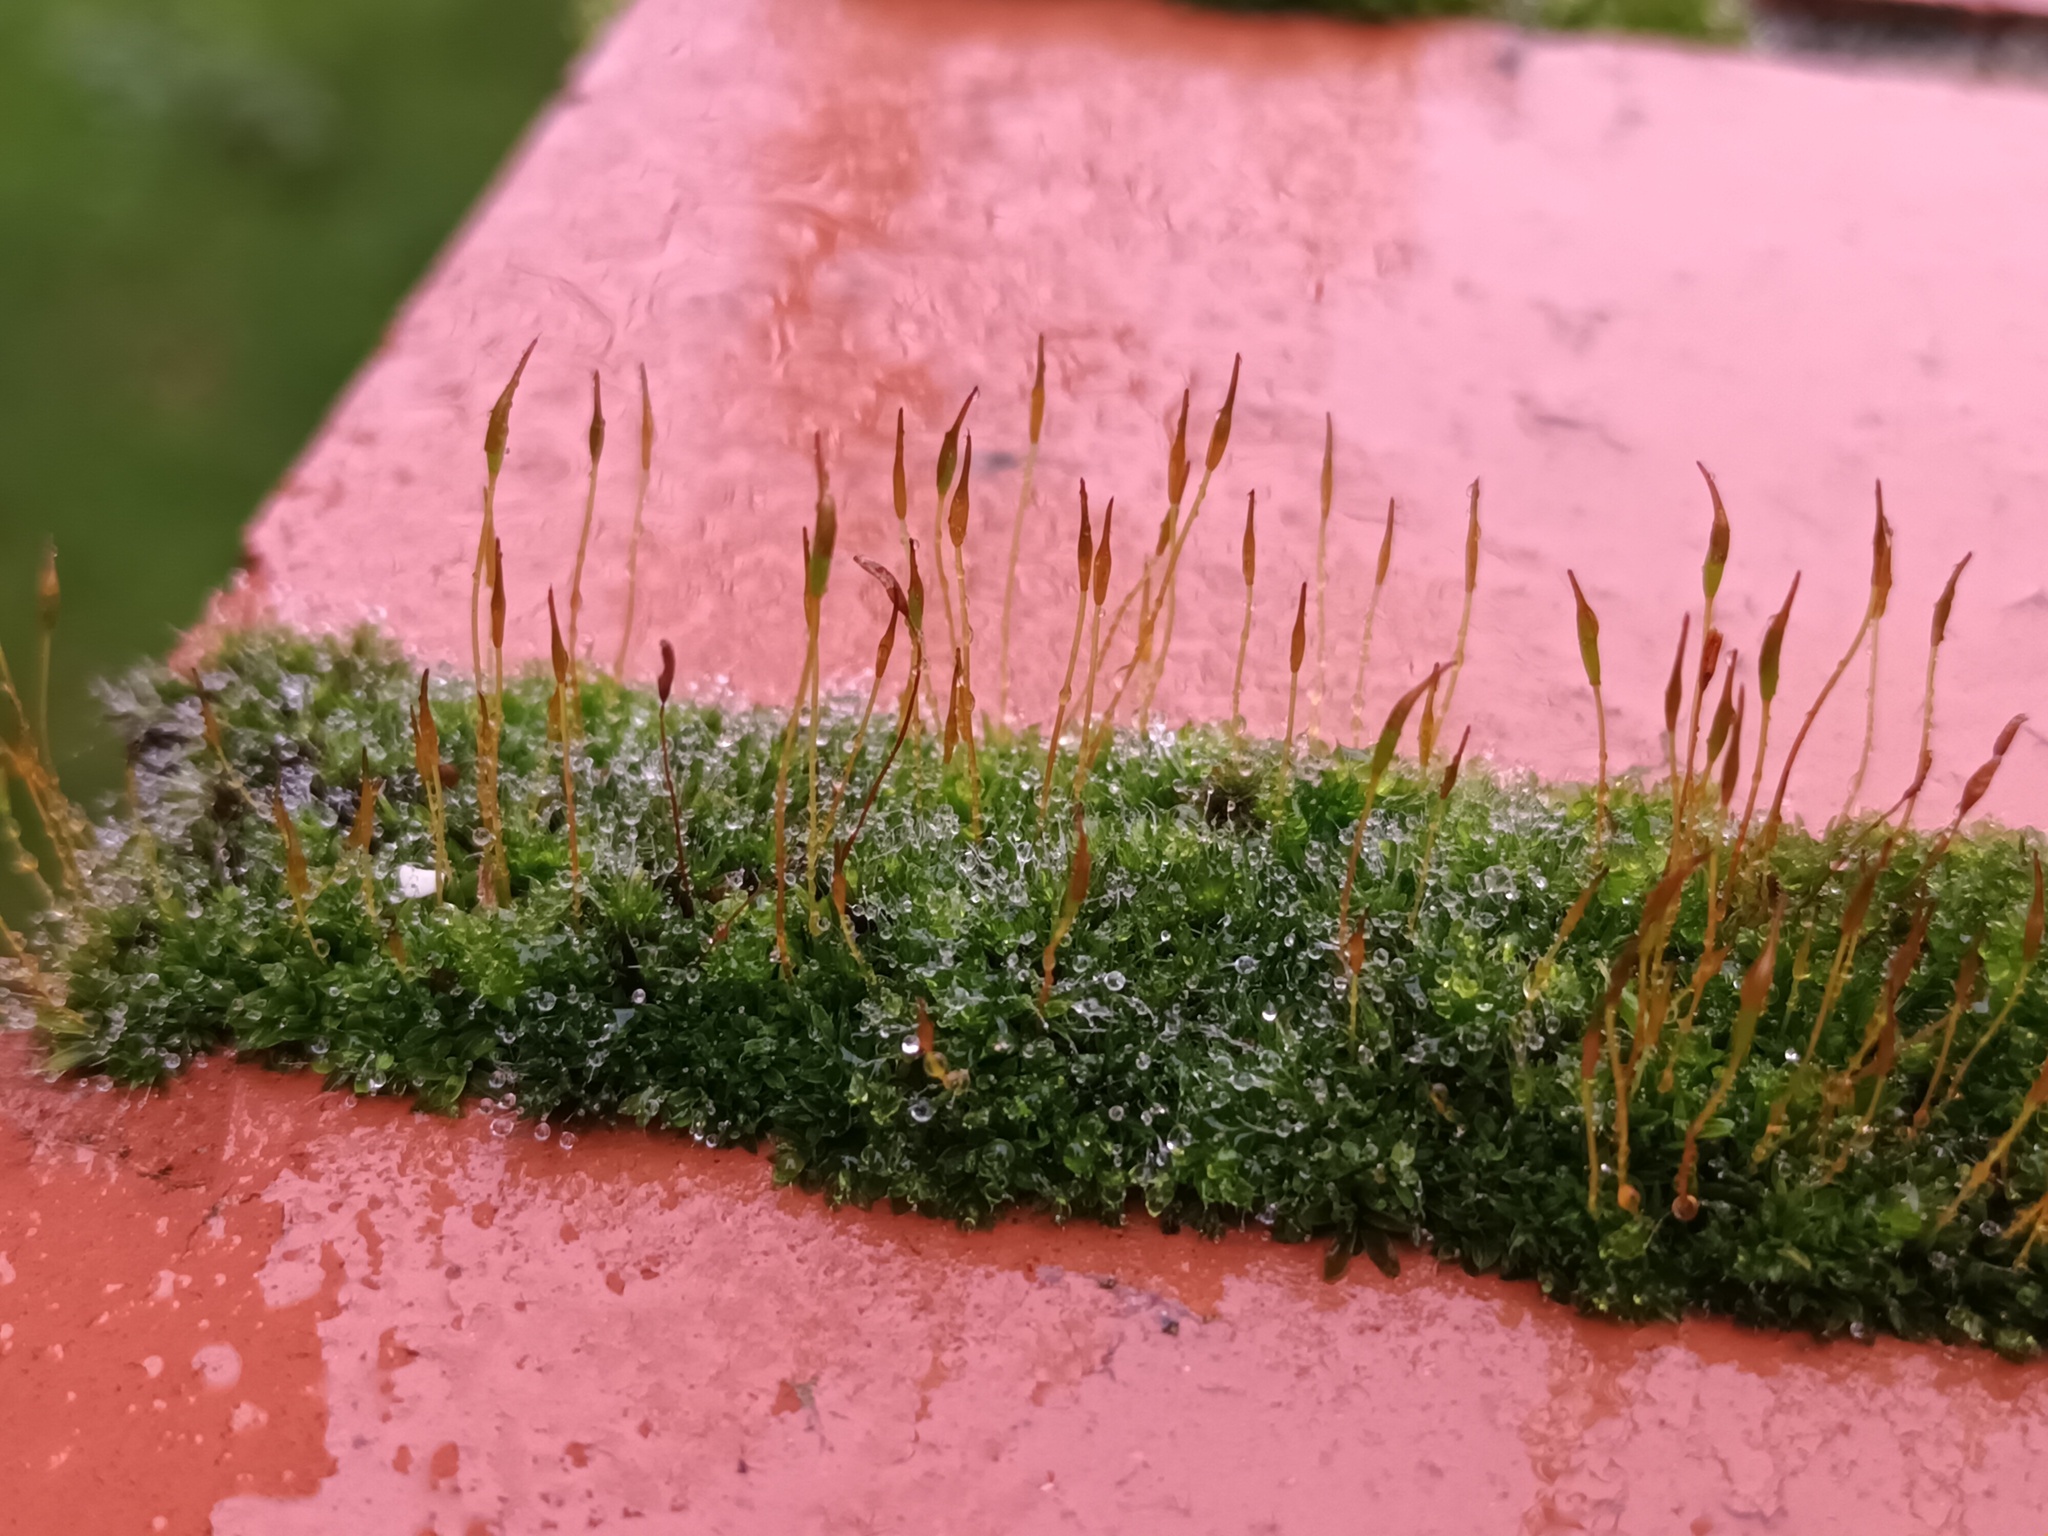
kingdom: Plantae
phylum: Bryophyta
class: Bryopsida
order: Pottiales
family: Pottiaceae
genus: Tortula
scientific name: Tortula muralis
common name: Wall screw-moss
